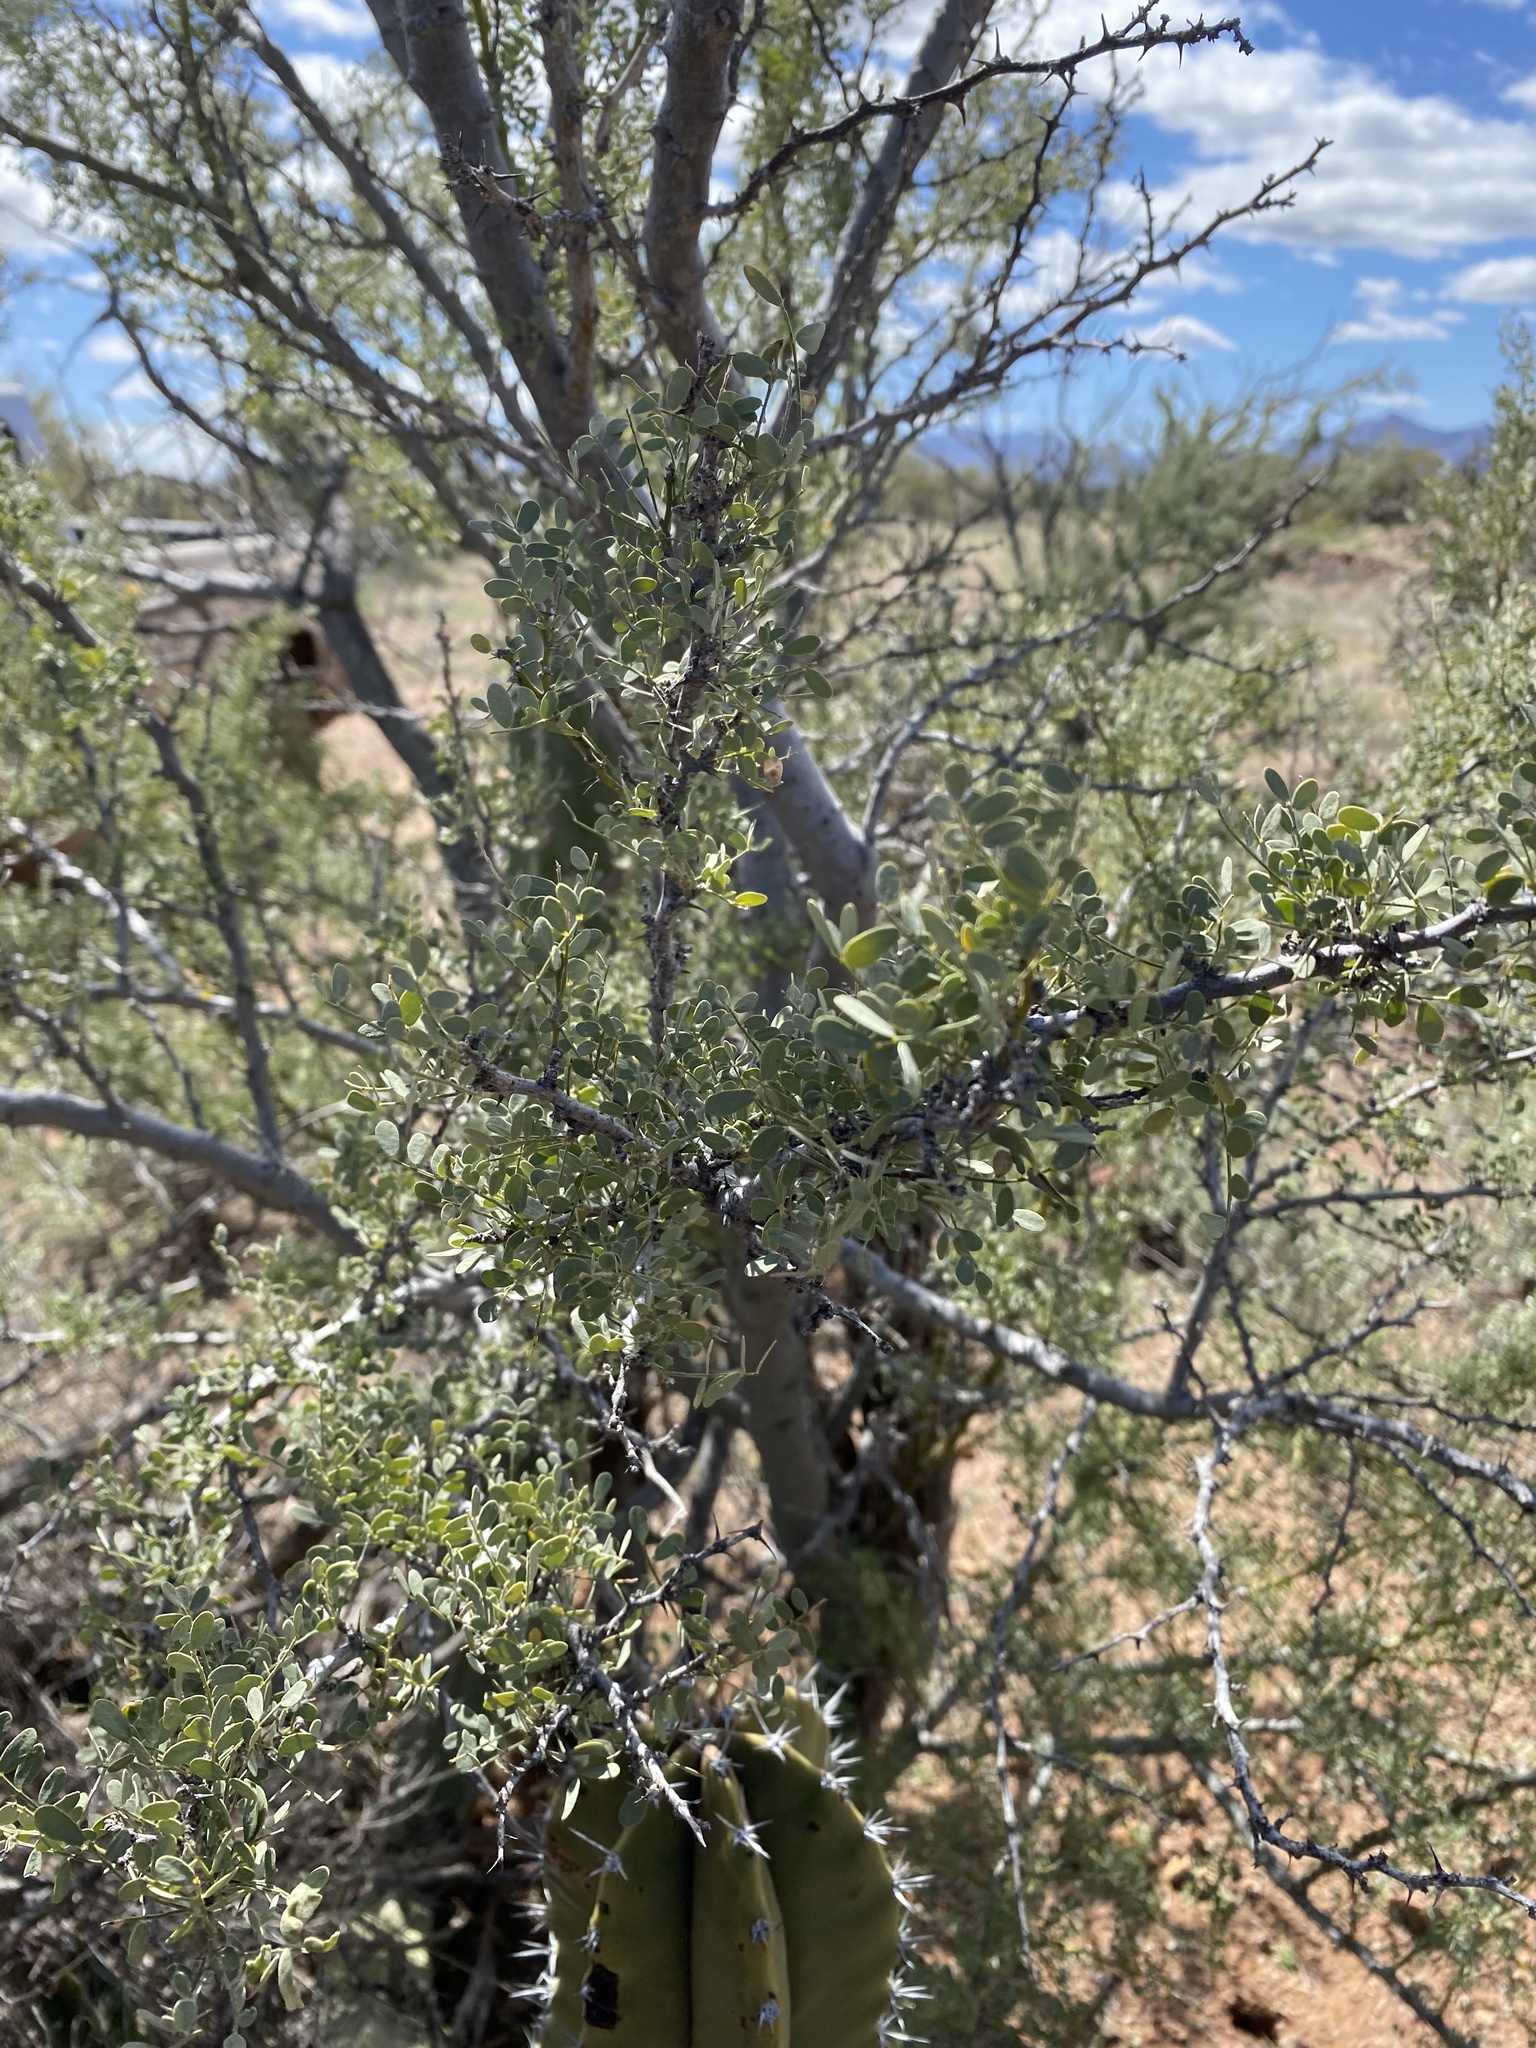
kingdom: Plantae
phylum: Tracheophyta
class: Magnoliopsida
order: Fabales
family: Fabaceae
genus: Olneya
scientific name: Olneya tesota
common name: Desert ironwood
